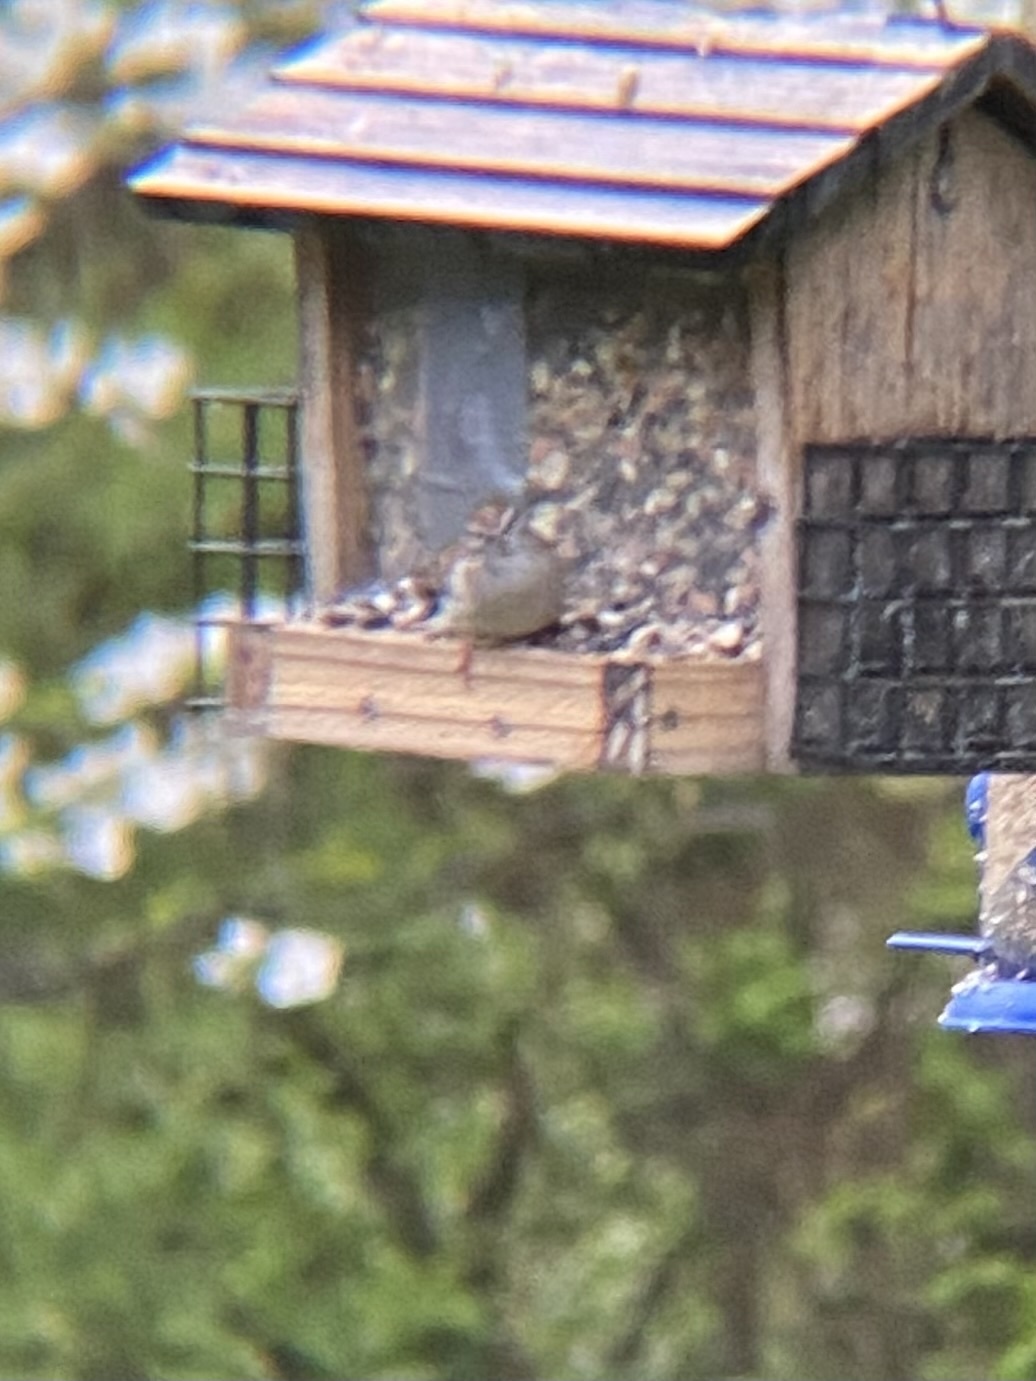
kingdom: Animalia
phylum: Chordata
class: Aves
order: Passeriformes
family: Passerellidae
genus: Spizella
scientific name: Spizella passerina
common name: Chipping sparrow
